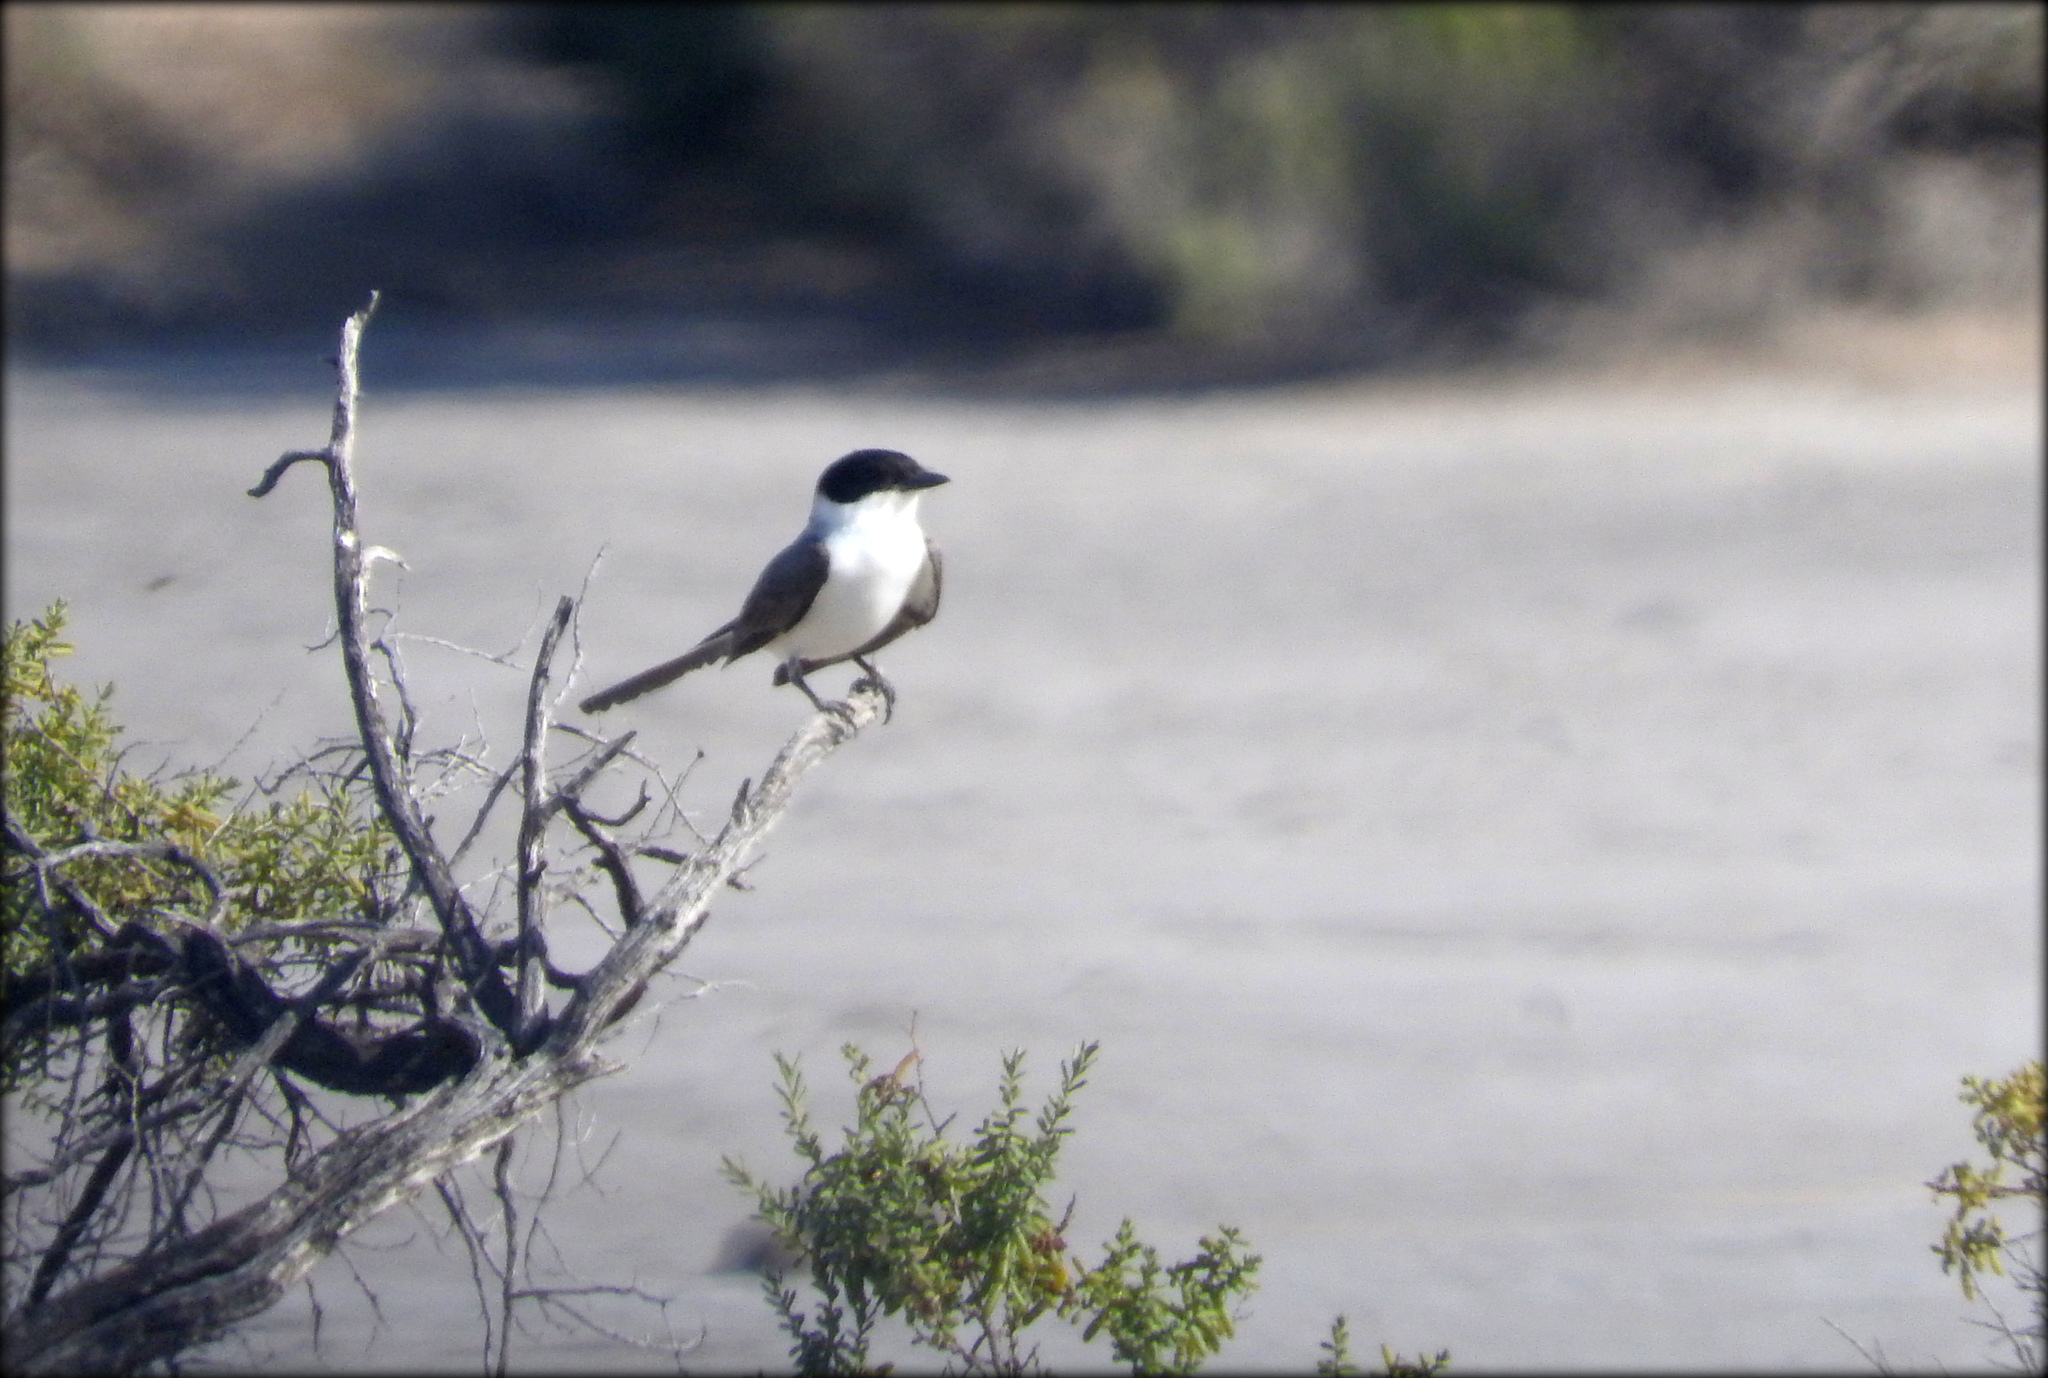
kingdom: Animalia
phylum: Chordata
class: Aves
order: Passeriformes
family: Tyrannidae
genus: Tyrannus
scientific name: Tyrannus savana
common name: Fork-tailed flycatcher
